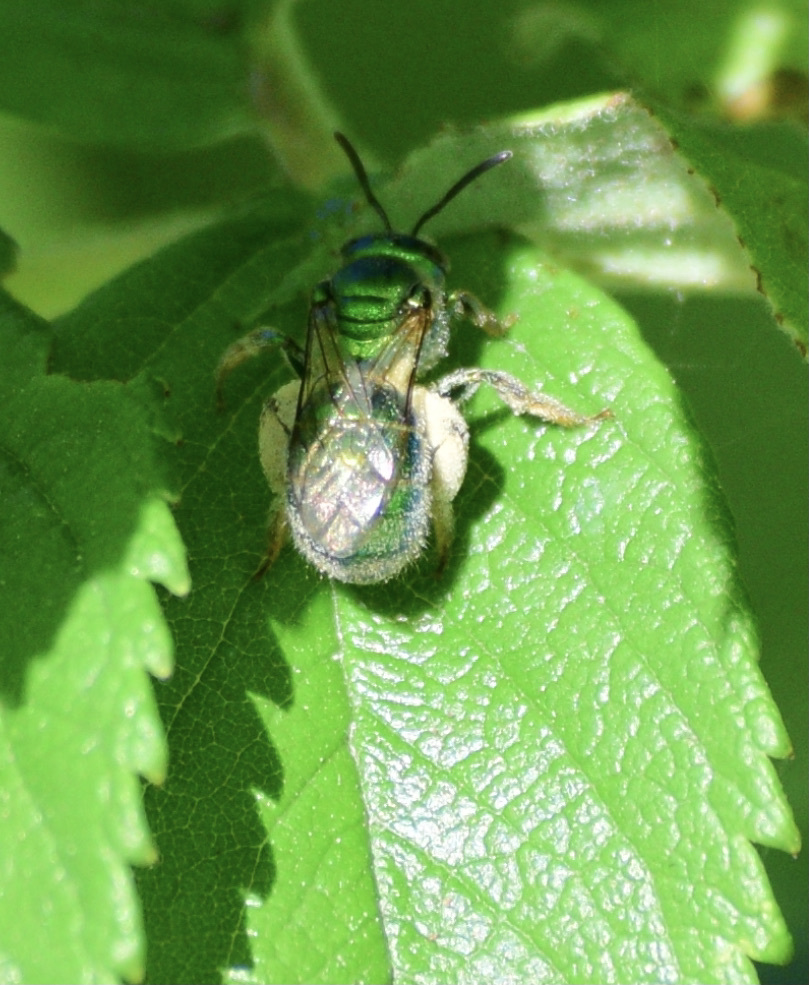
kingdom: Animalia
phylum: Arthropoda
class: Insecta
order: Hymenoptera
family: Halictidae
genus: Augochloropsis
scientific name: Augochloropsis viridula
